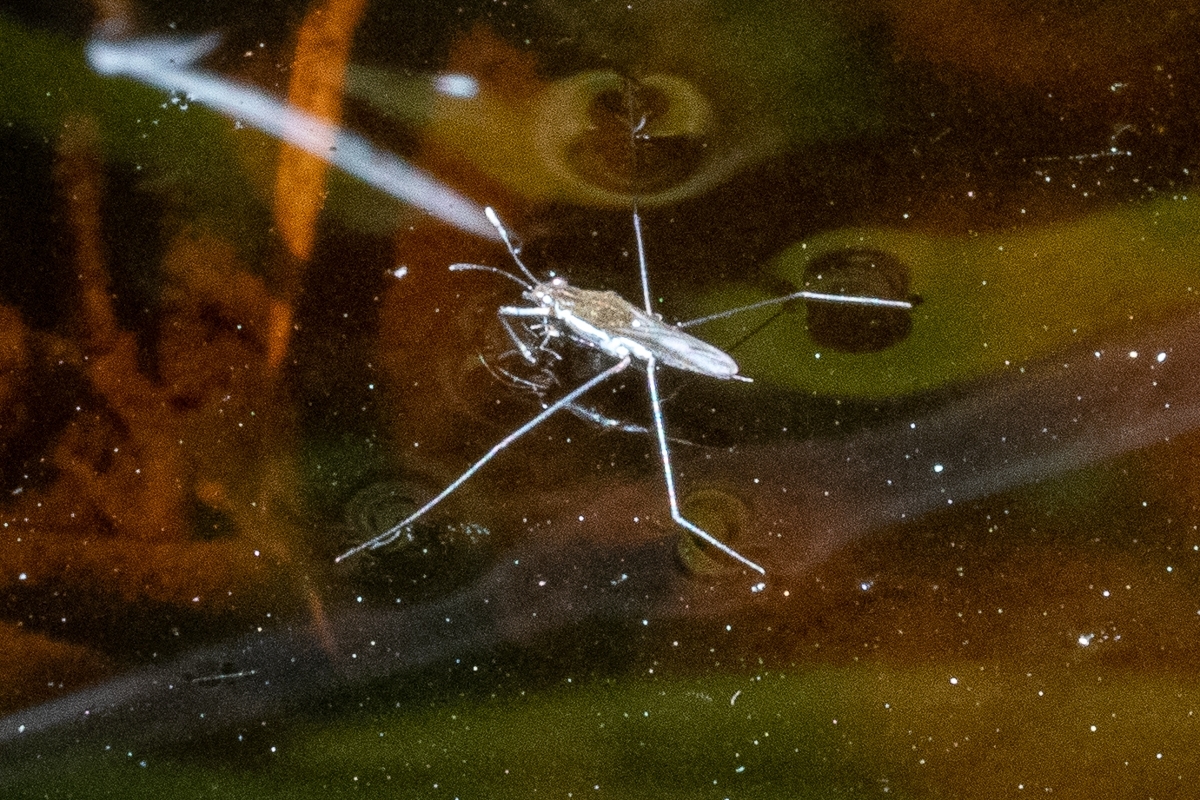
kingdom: Animalia
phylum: Arthropoda
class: Insecta
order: Hemiptera
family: Gerridae
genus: Gerris
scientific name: Gerris swakopensis
